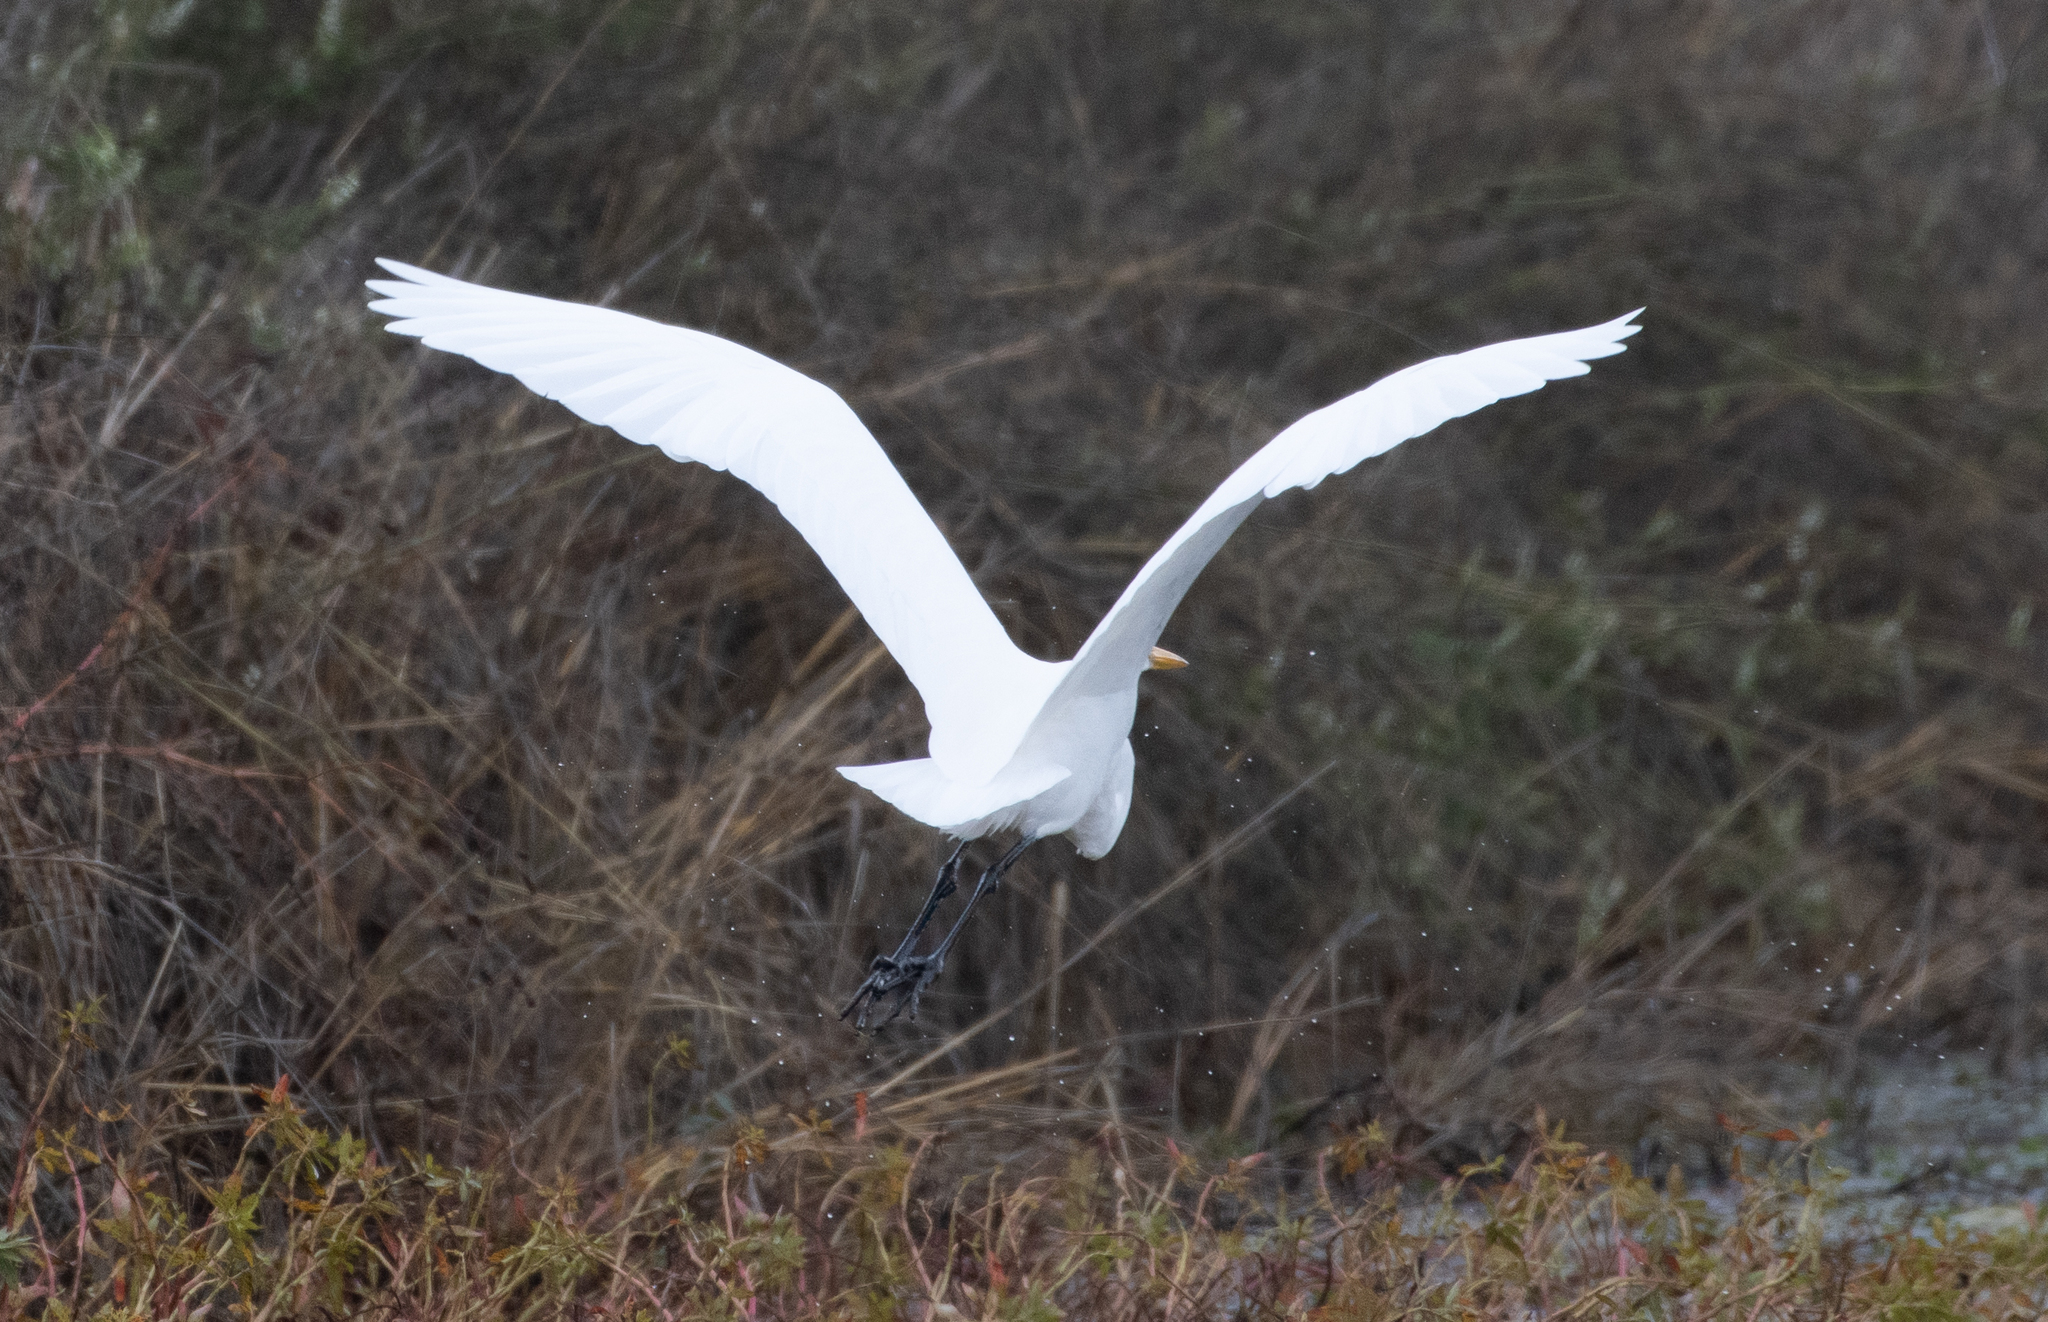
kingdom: Animalia
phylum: Chordata
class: Aves
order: Pelecaniformes
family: Ardeidae
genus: Ardea
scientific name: Ardea alba
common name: Great egret
